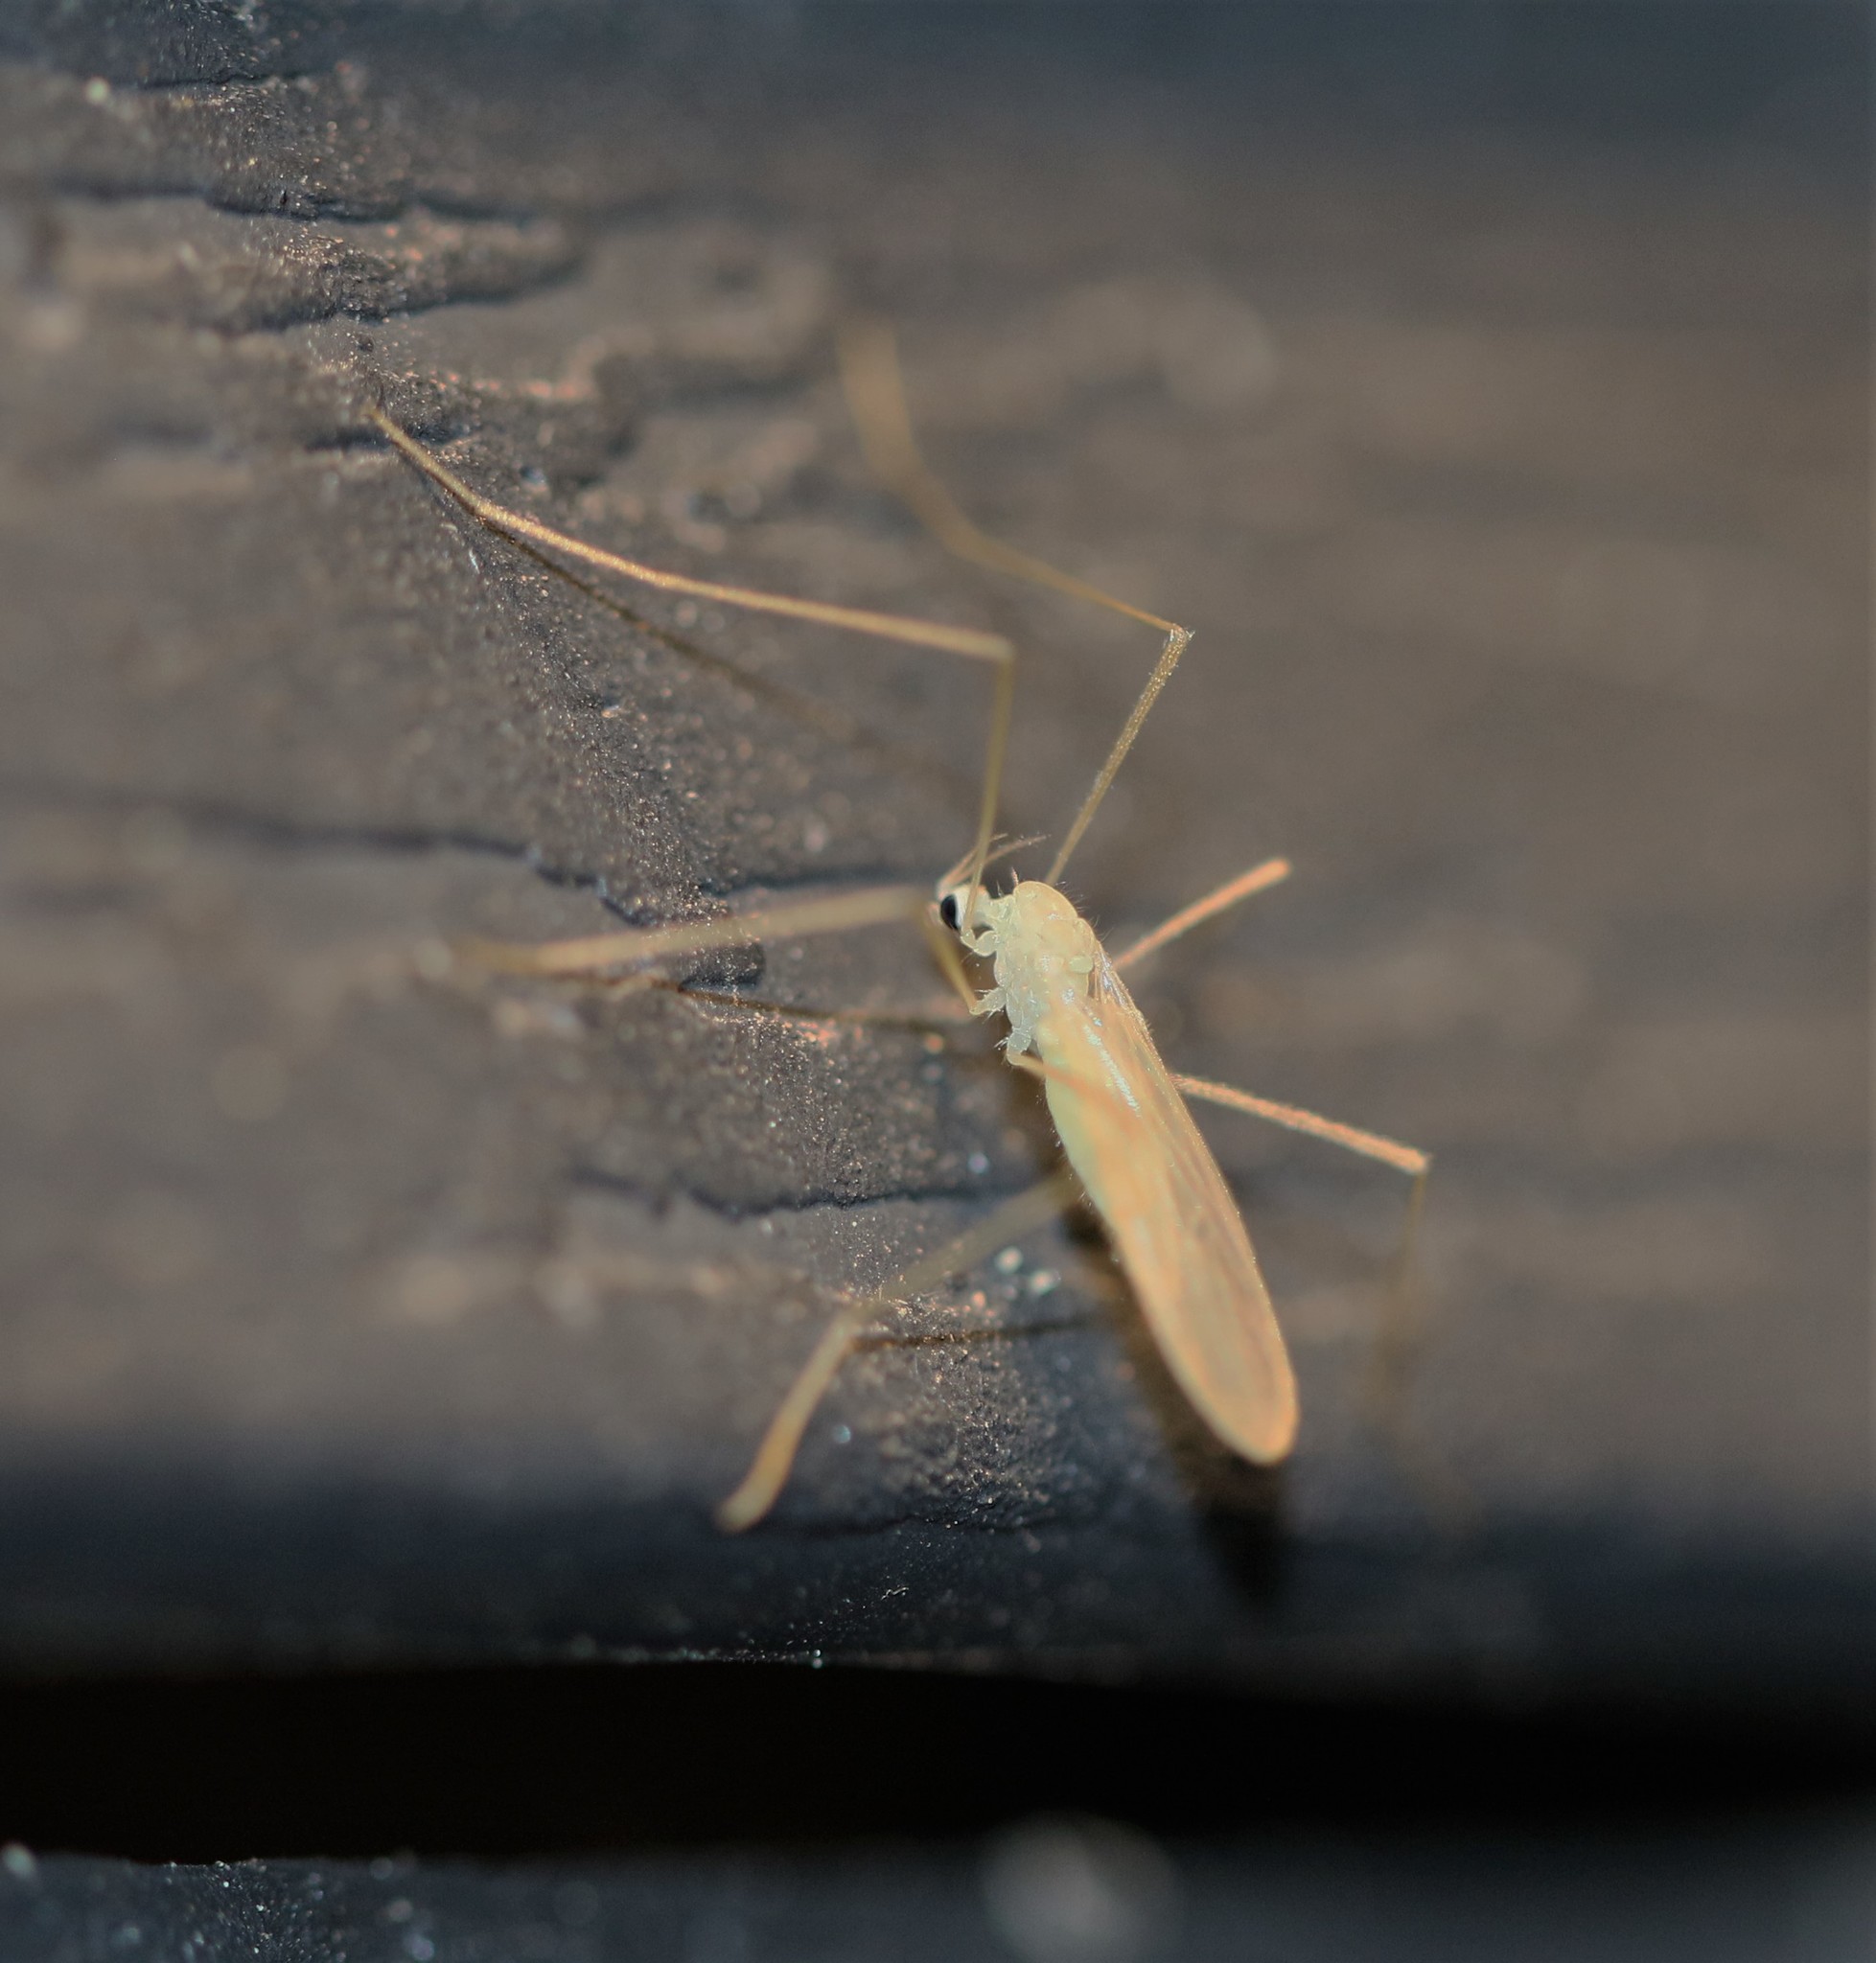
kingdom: Animalia
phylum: Arthropoda
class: Insecta
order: Diptera
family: Limoniidae
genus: Erioptera
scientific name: Erioptera
